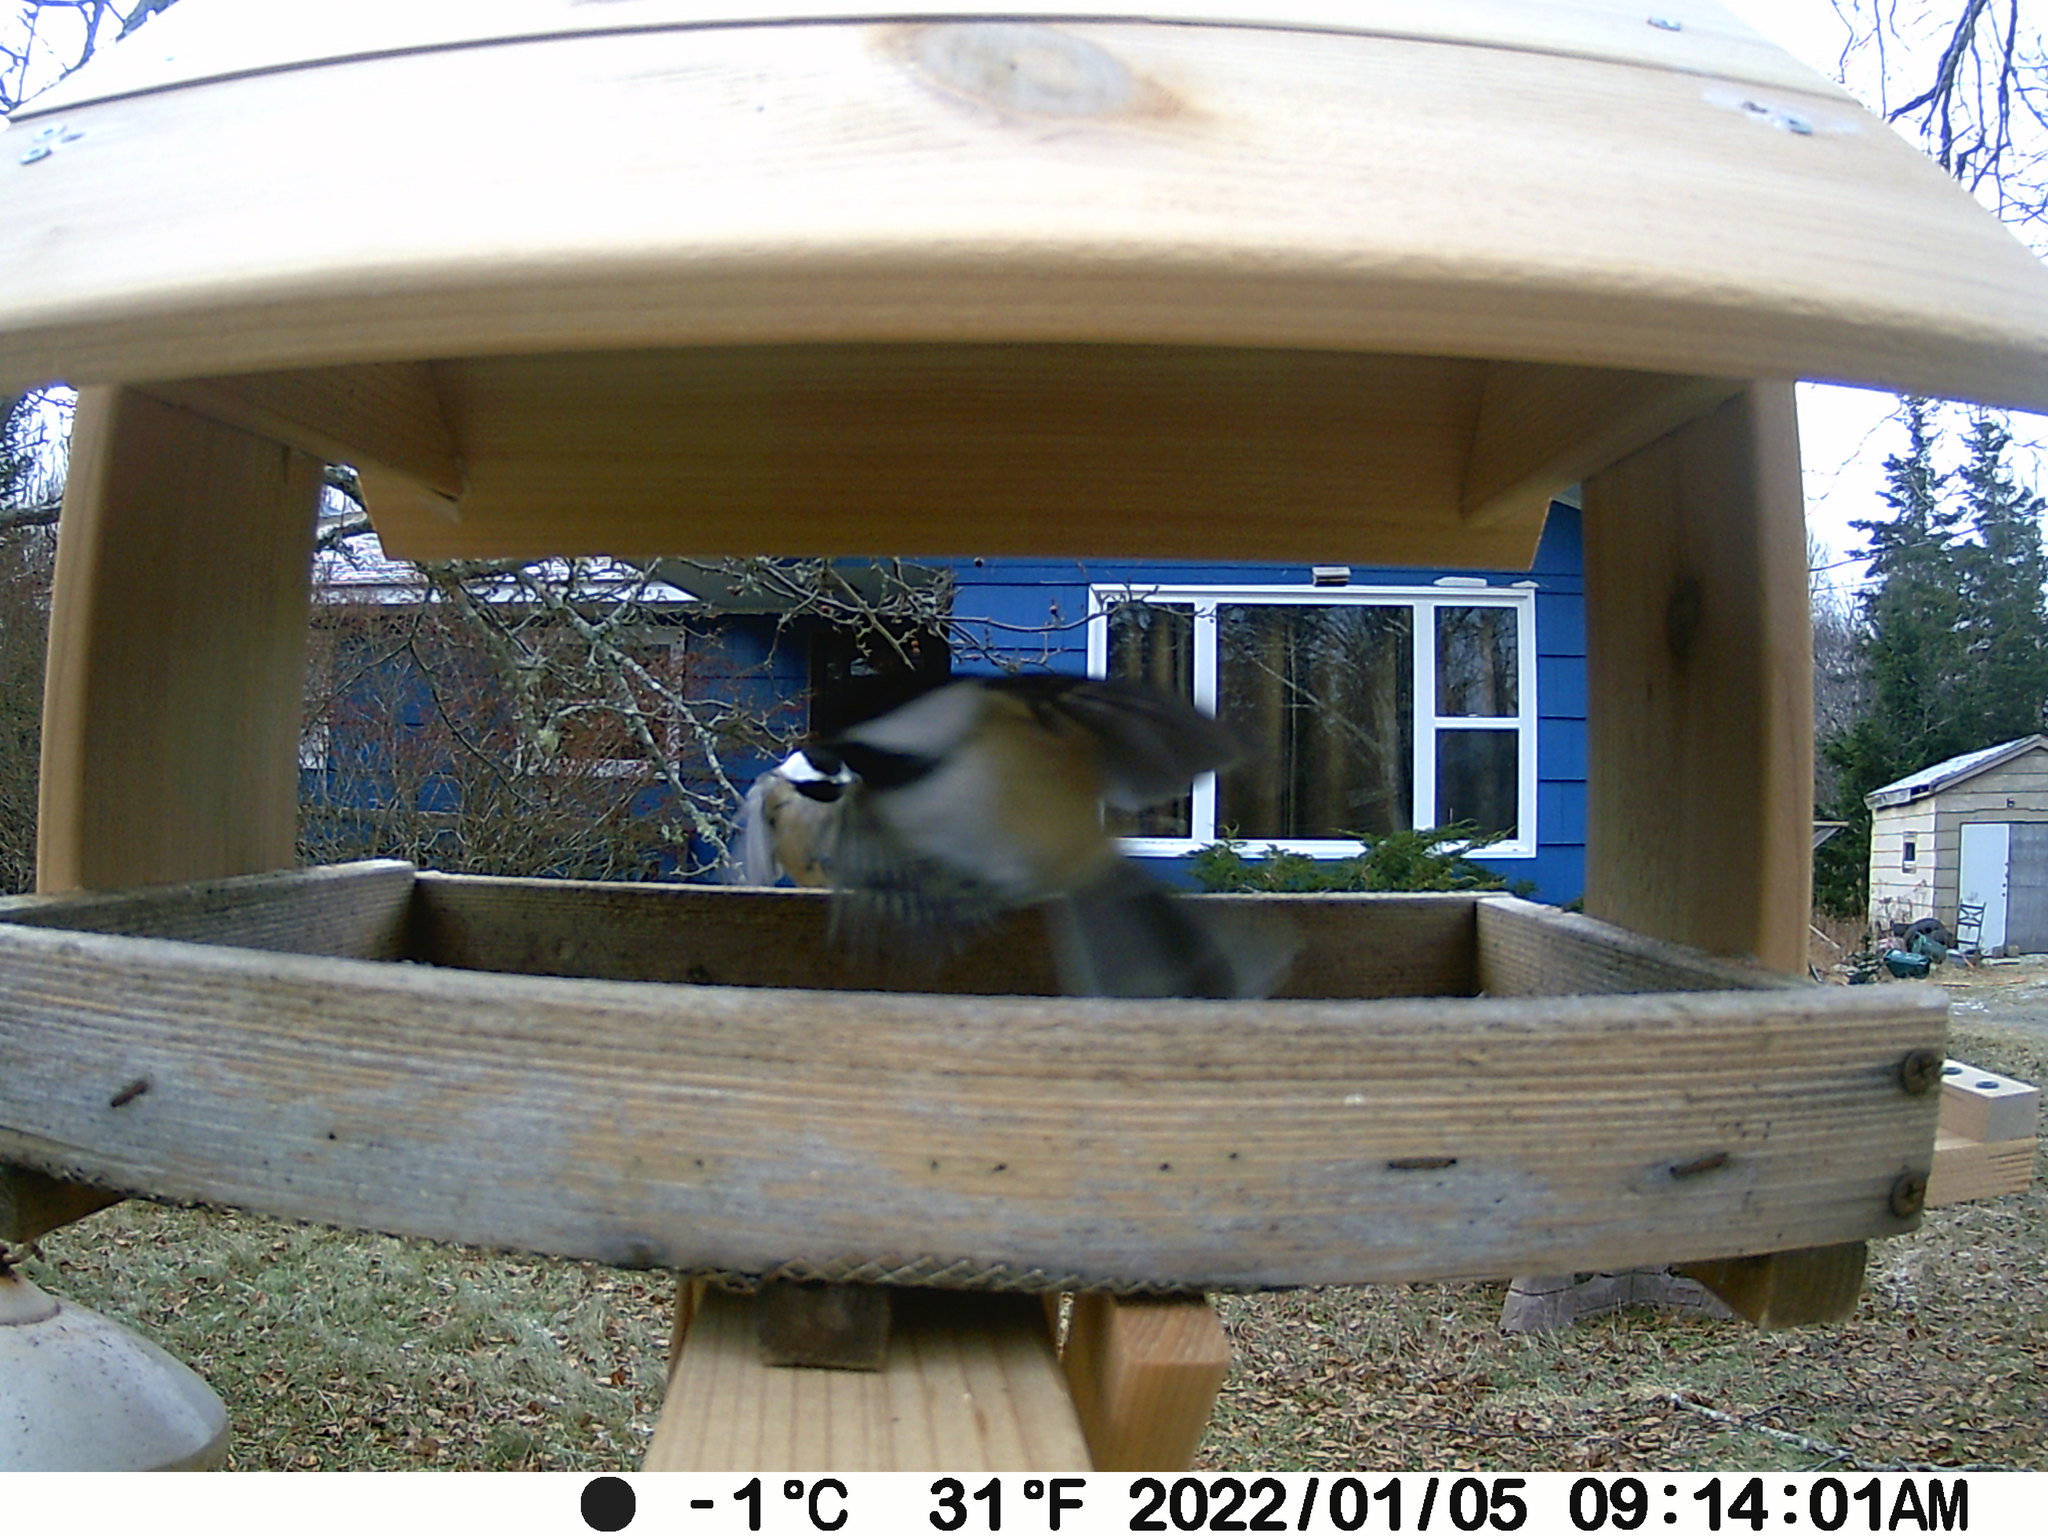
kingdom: Animalia
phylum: Chordata
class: Aves
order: Passeriformes
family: Paridae
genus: Poecile
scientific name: Poecile atricapillus
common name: Black-capped chickadee
